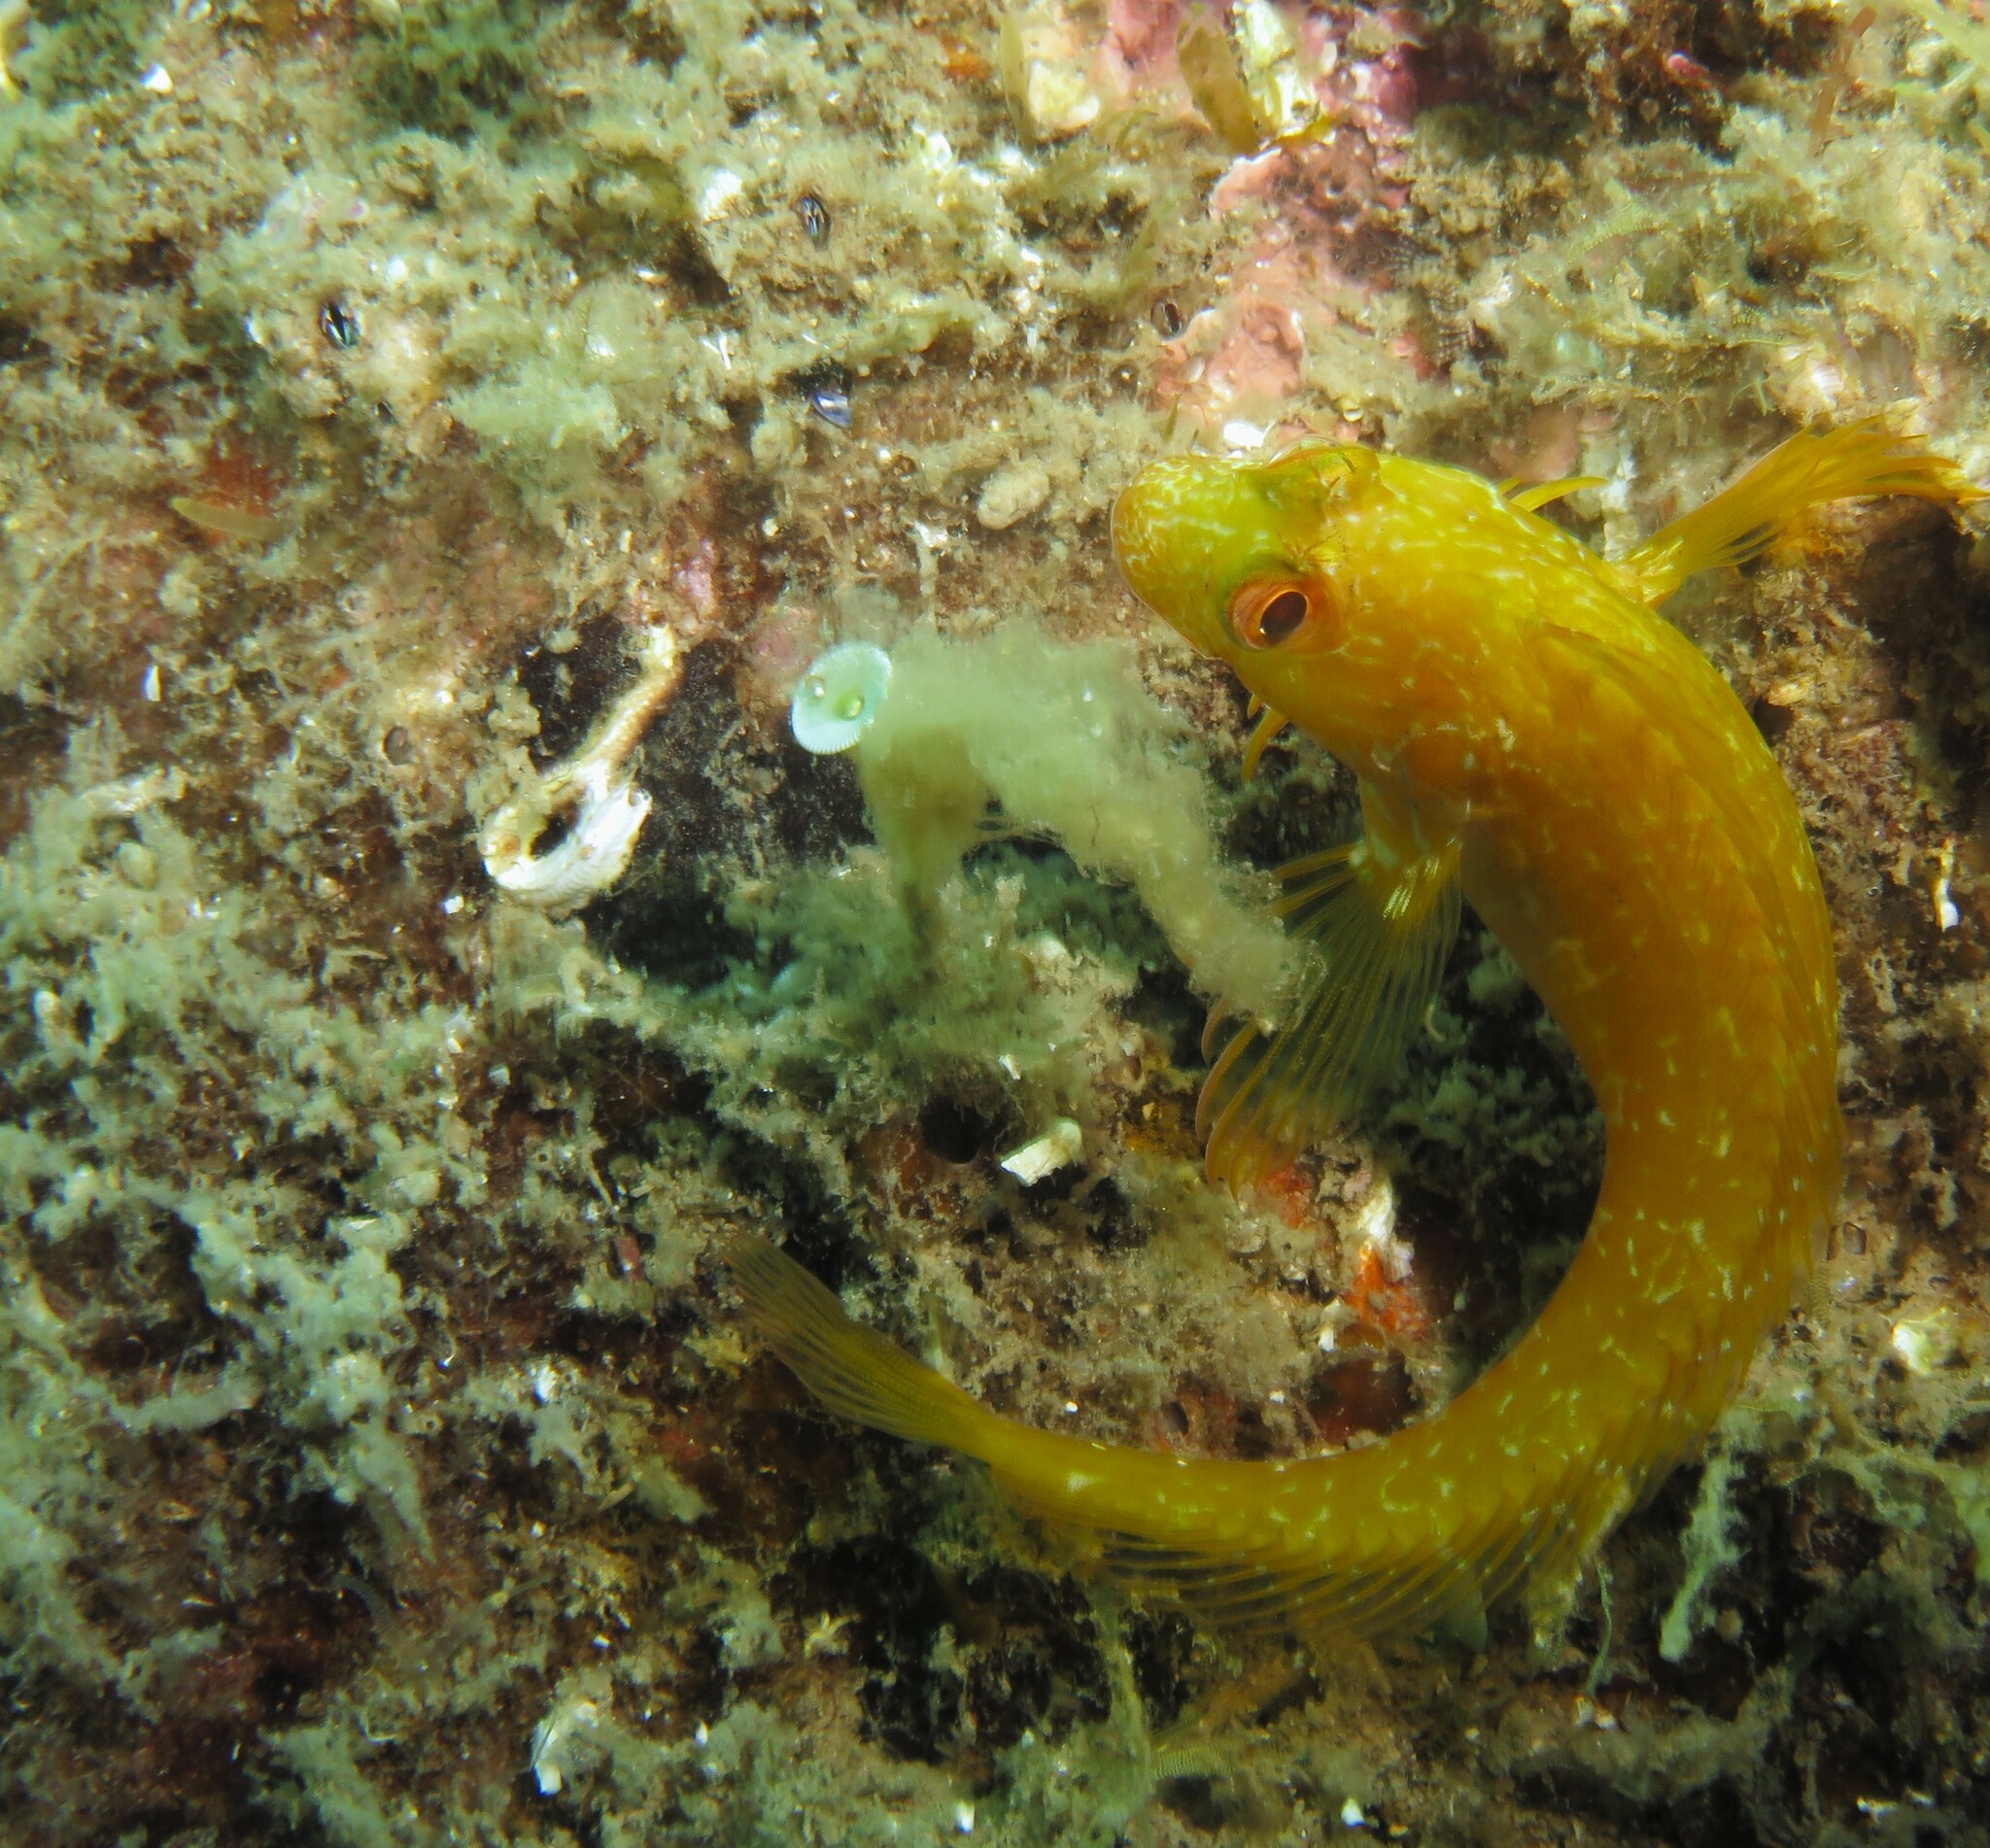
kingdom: Animalia
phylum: Chordata
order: Perciformes
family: Blenniidae
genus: Parablennius
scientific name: Parablennius pilicornis
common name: Ringneck blenny
